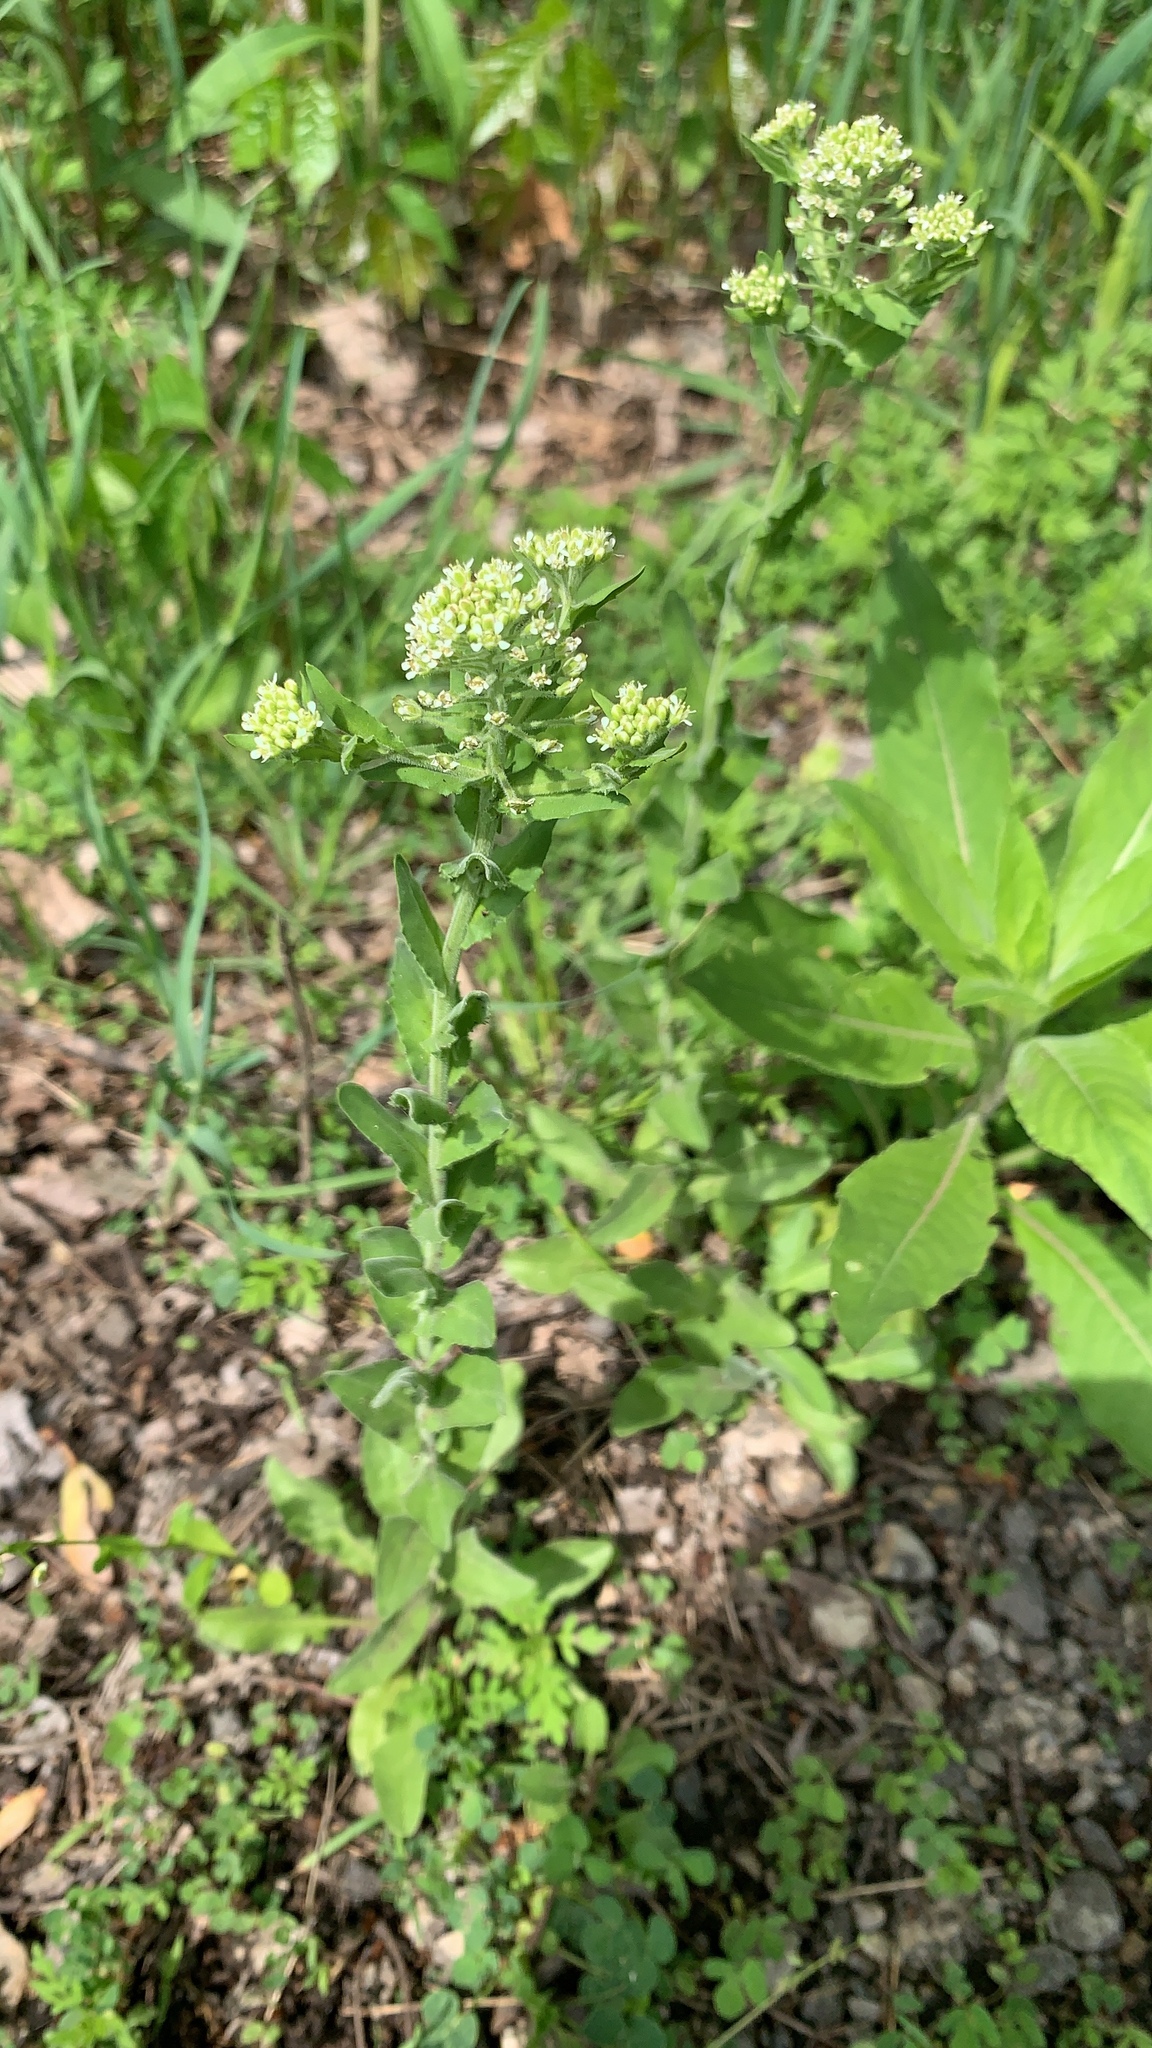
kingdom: Plantae
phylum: Tracheophyta
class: Magnoliopsida
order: Brassicales
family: Brassicaceae
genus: Lepidium
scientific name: Lepidium campestre
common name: Field pepperwort
